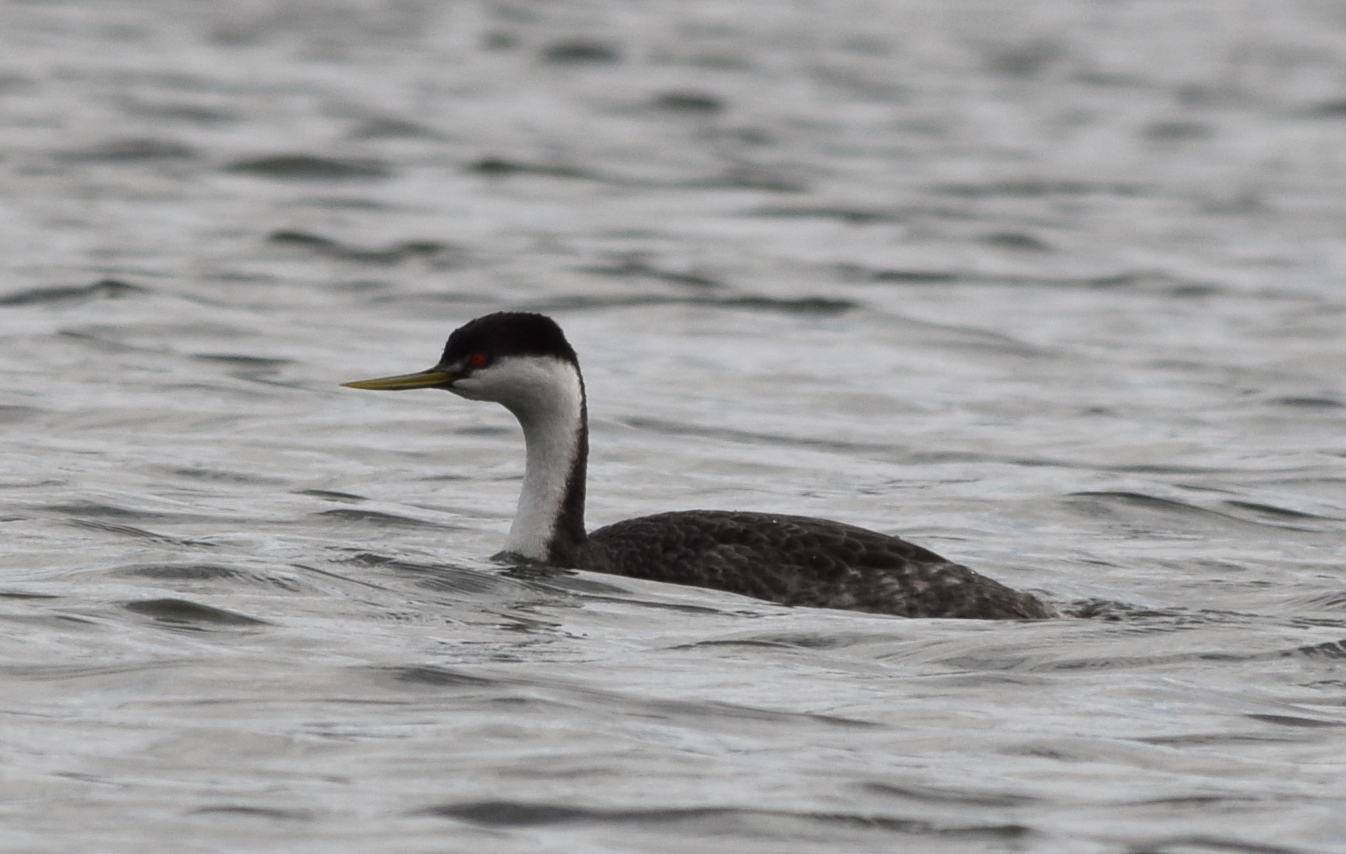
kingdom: Animalia
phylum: Chordata
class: Aves
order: Podicipediformes
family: Podicipedidae
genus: Aechmophorus
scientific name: Aechmophorus occidentalis
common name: Western grebe
